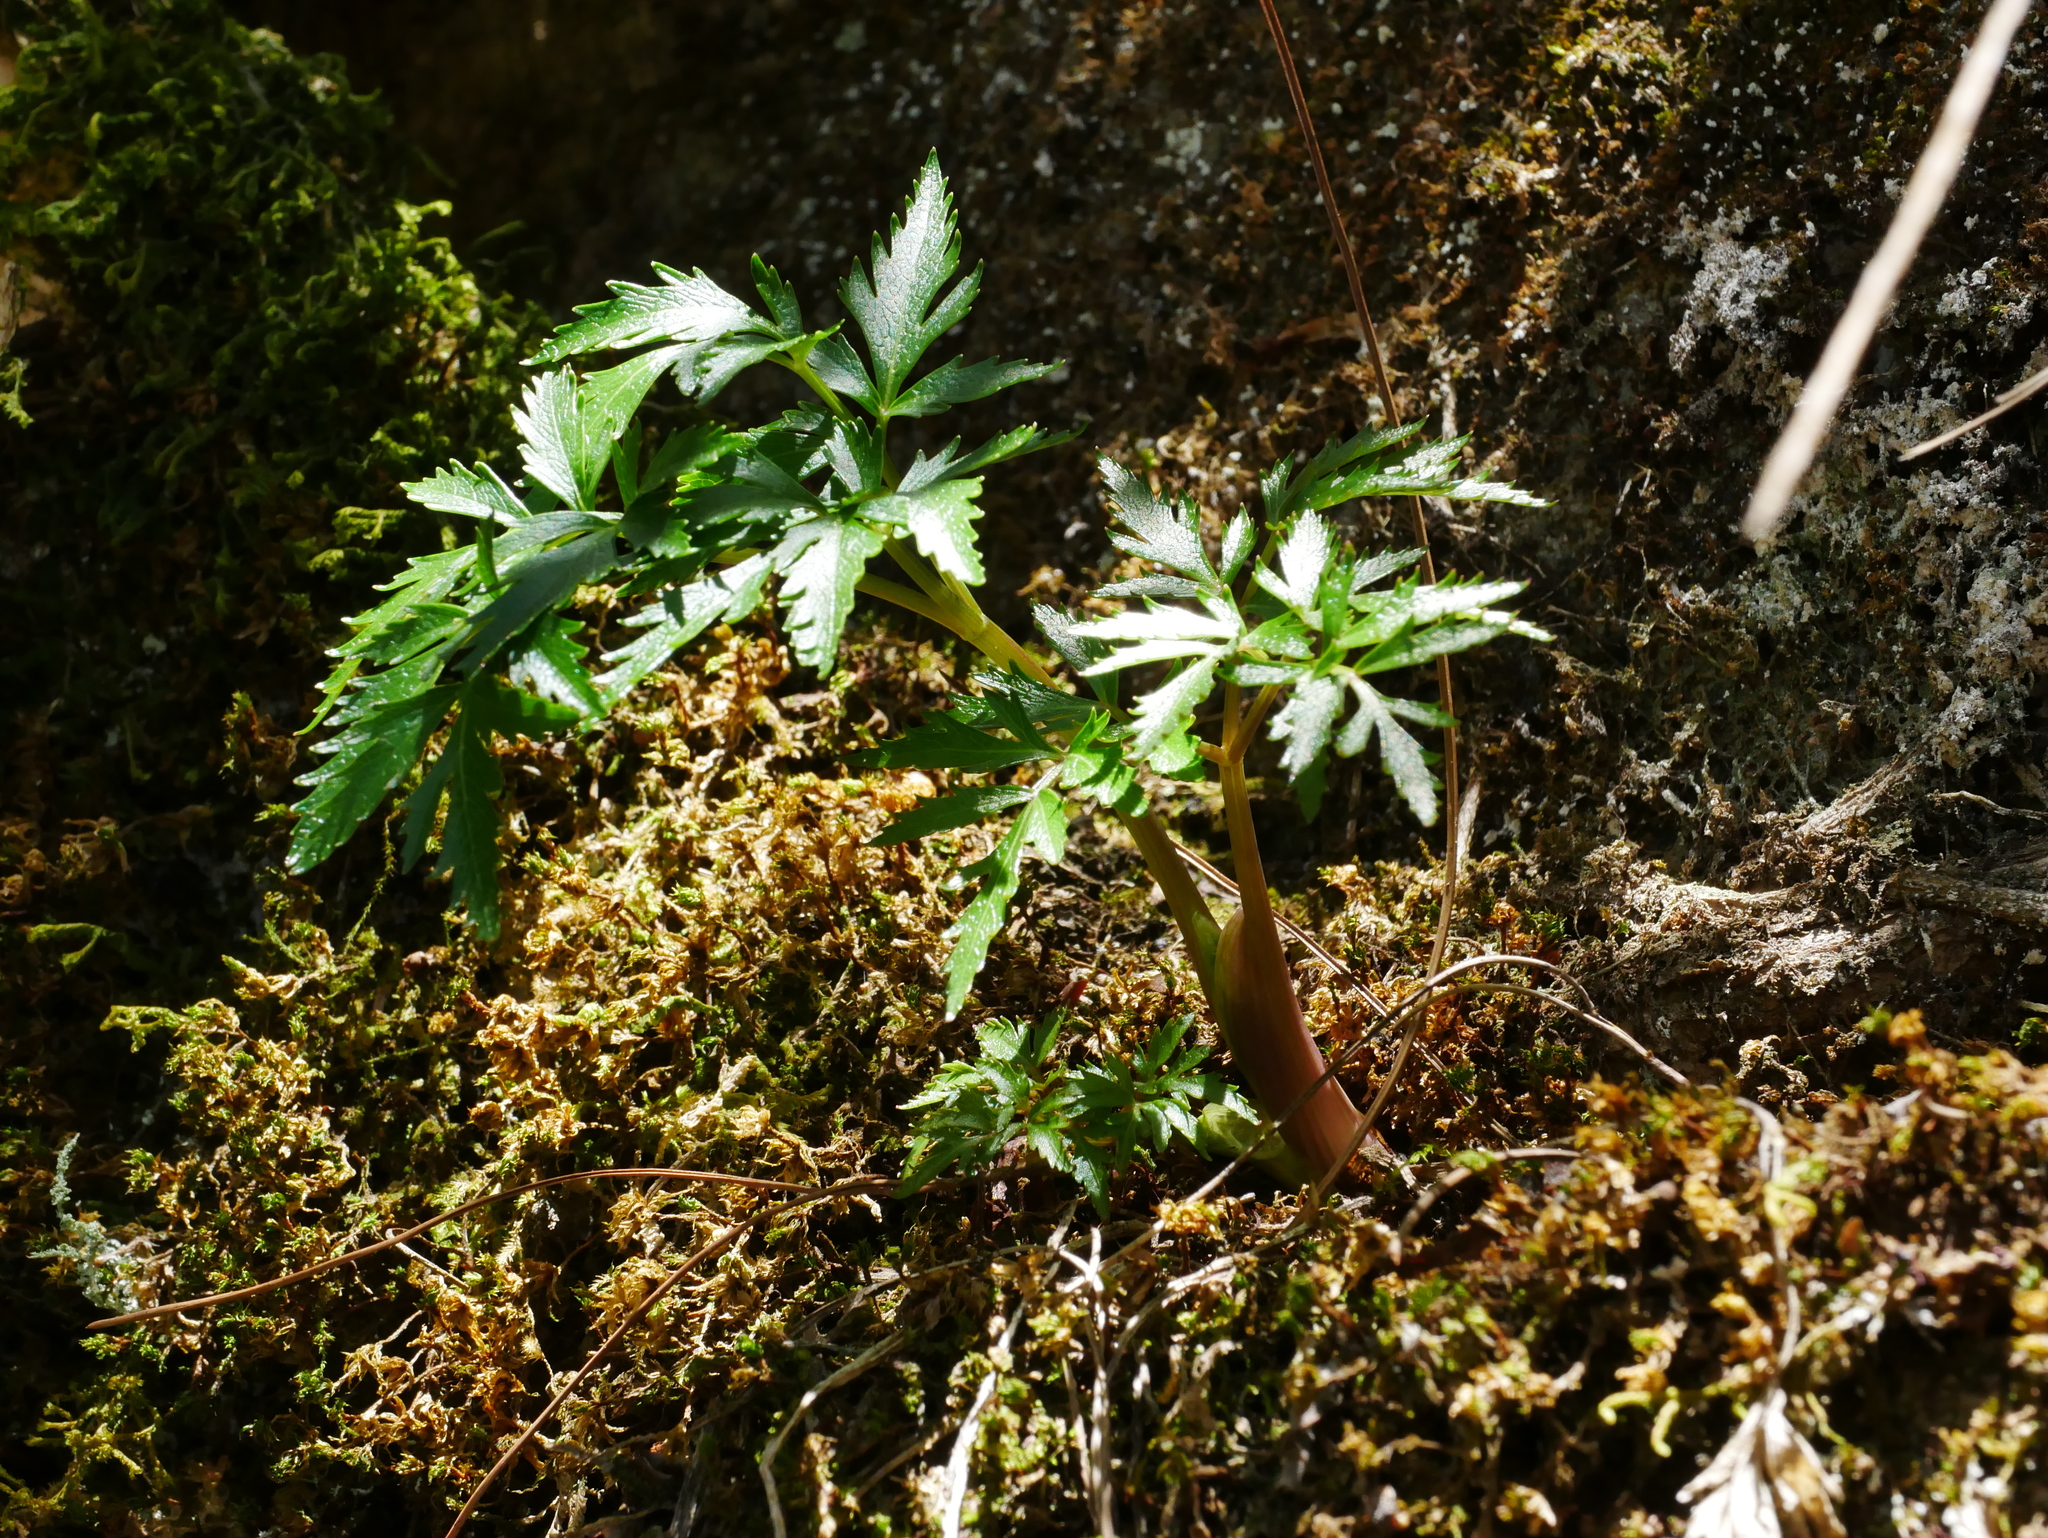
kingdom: Plantae
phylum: Tracheophyta
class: Magnoliopsida
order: Apiales
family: Apiaceae
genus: Angelica
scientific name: Angelica morii
